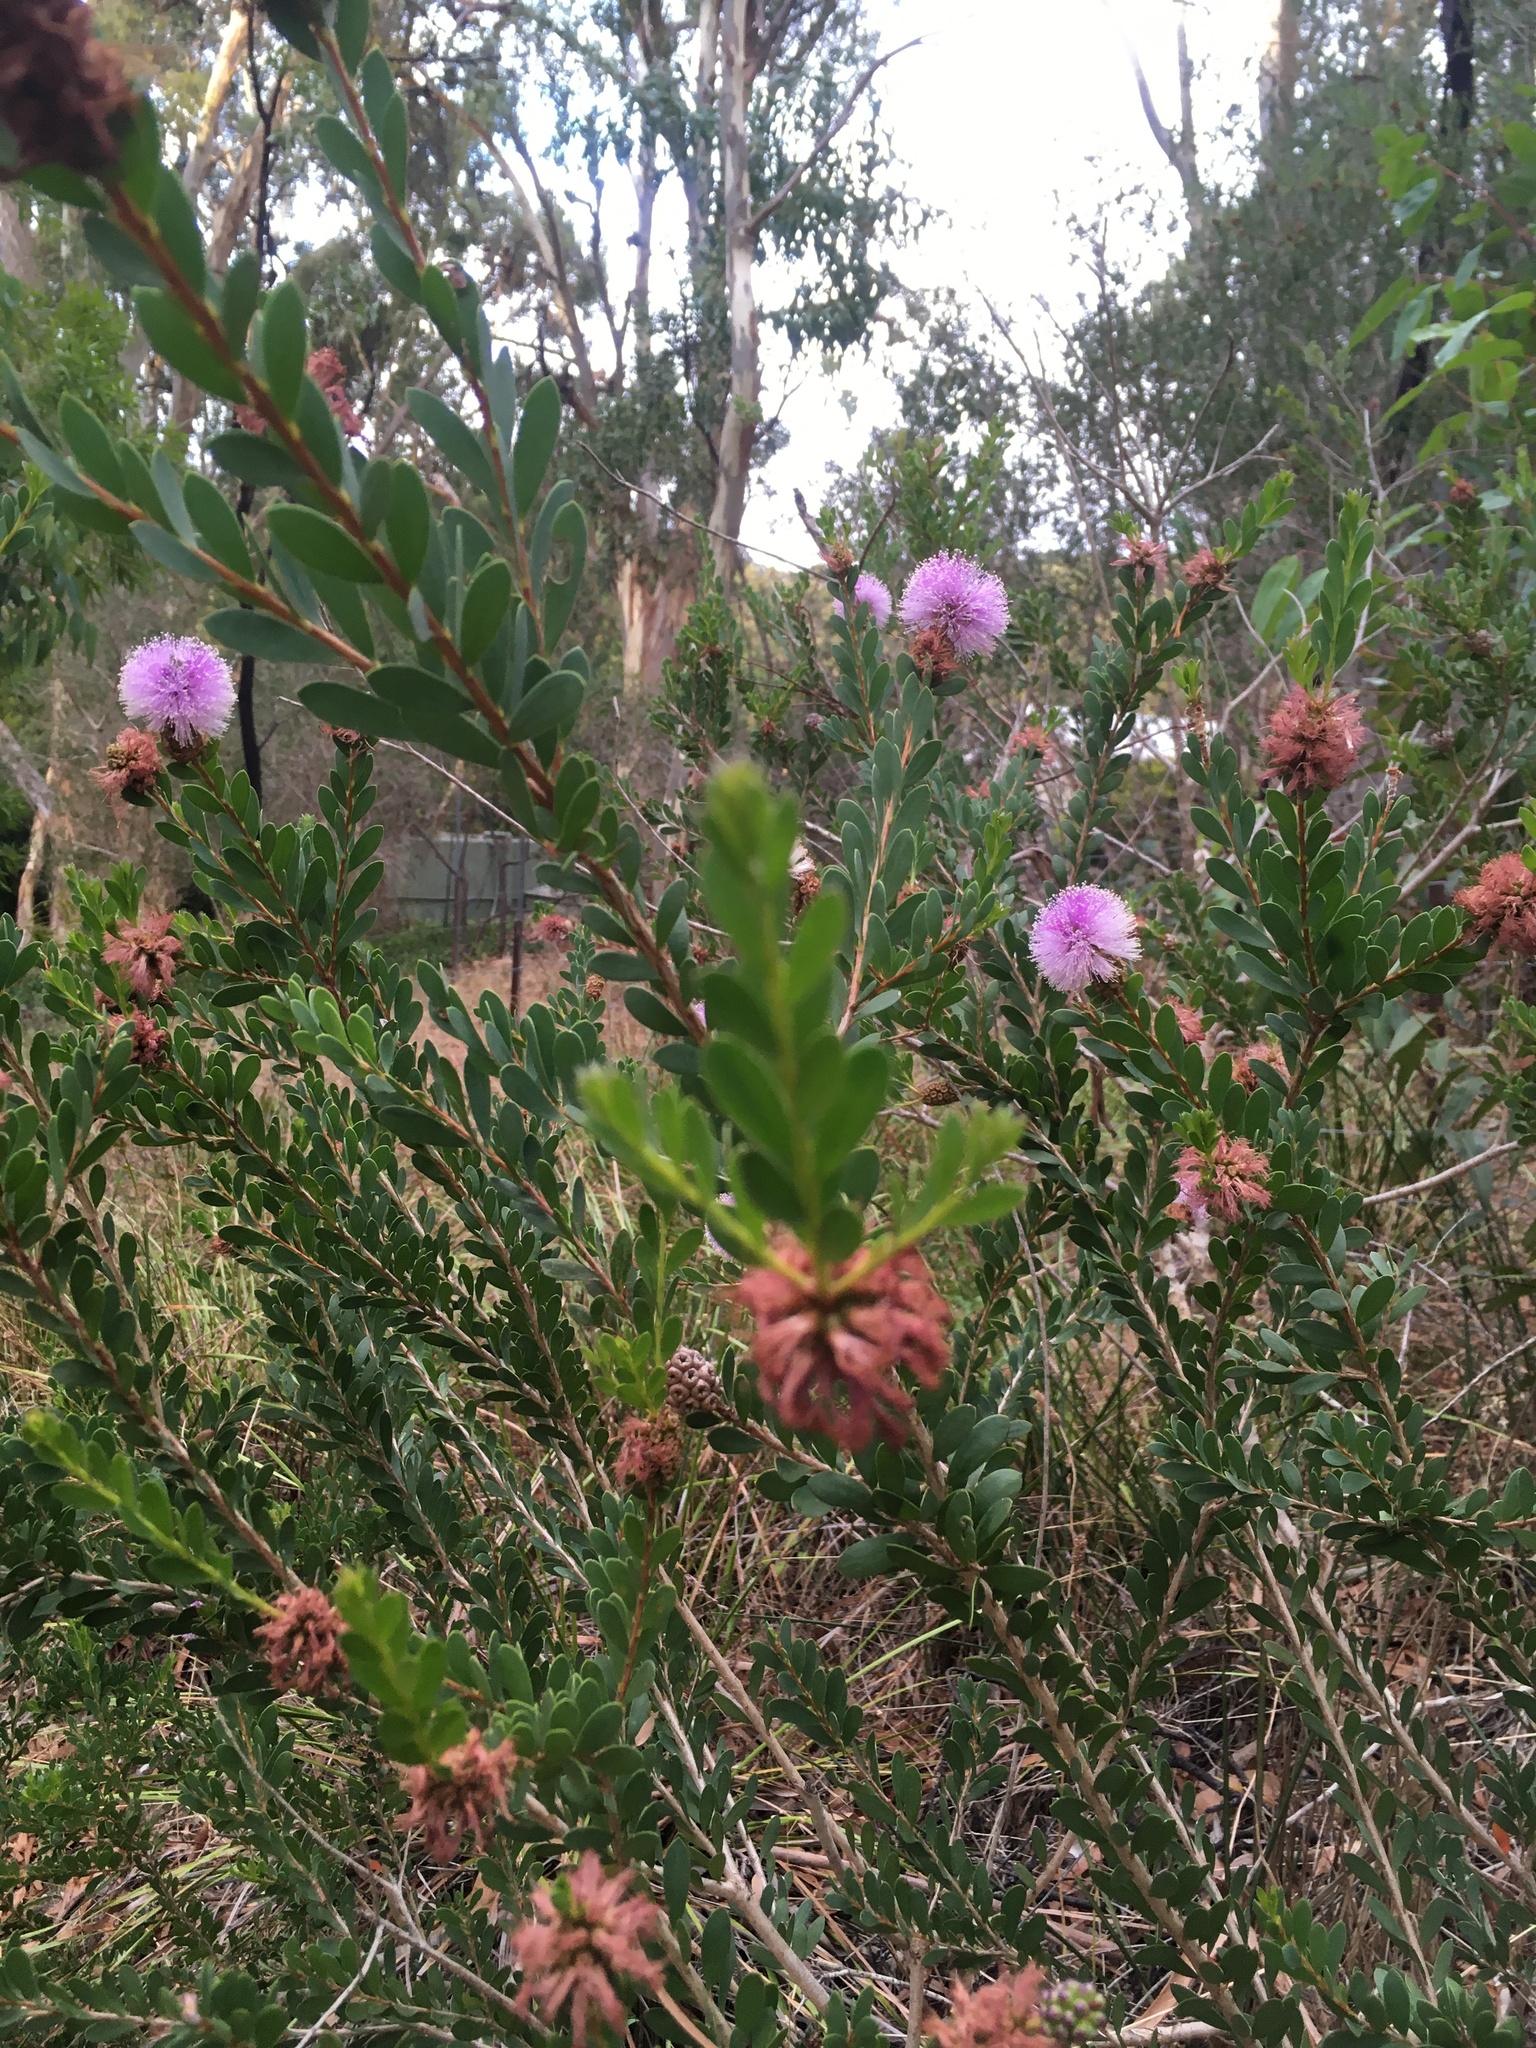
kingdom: Plantae
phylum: Tracheophyta
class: Magnoliopsida
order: Myrtales
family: Myrtaceae
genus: Melaleuca
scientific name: Melaleuca nesophila
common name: Mauve honey myrtle
